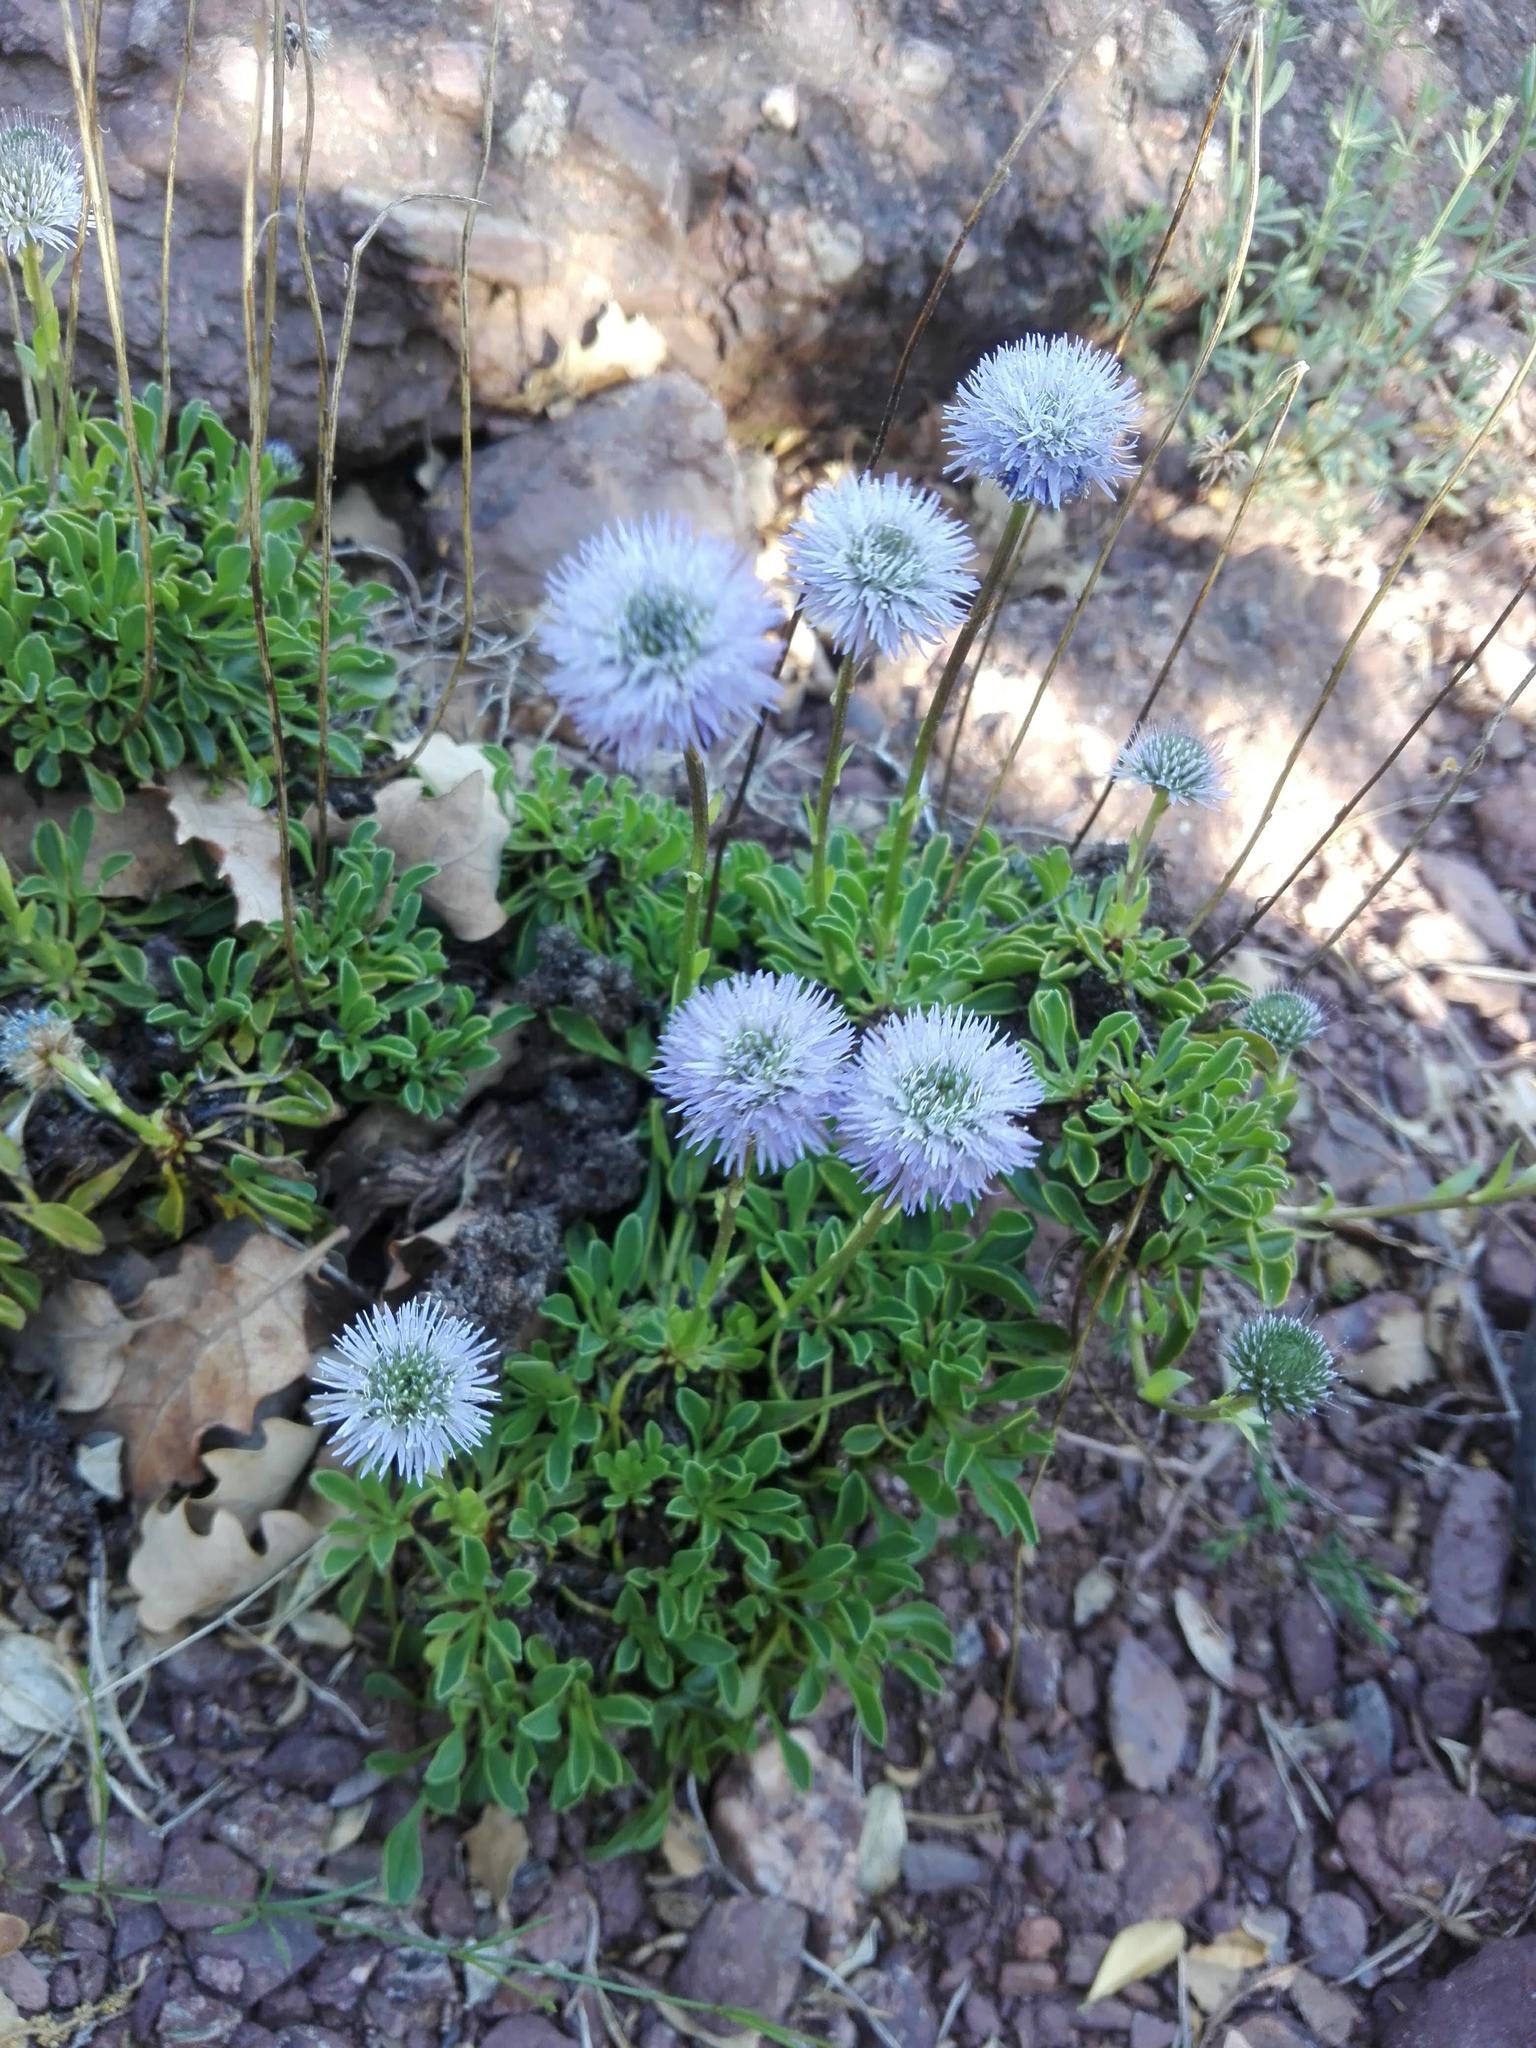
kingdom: Plantae
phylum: Tracheophyta
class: Magnoliopsida
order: Lamiales
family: Plantaginaceae
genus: Globularia
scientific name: Globularia cordifolia
